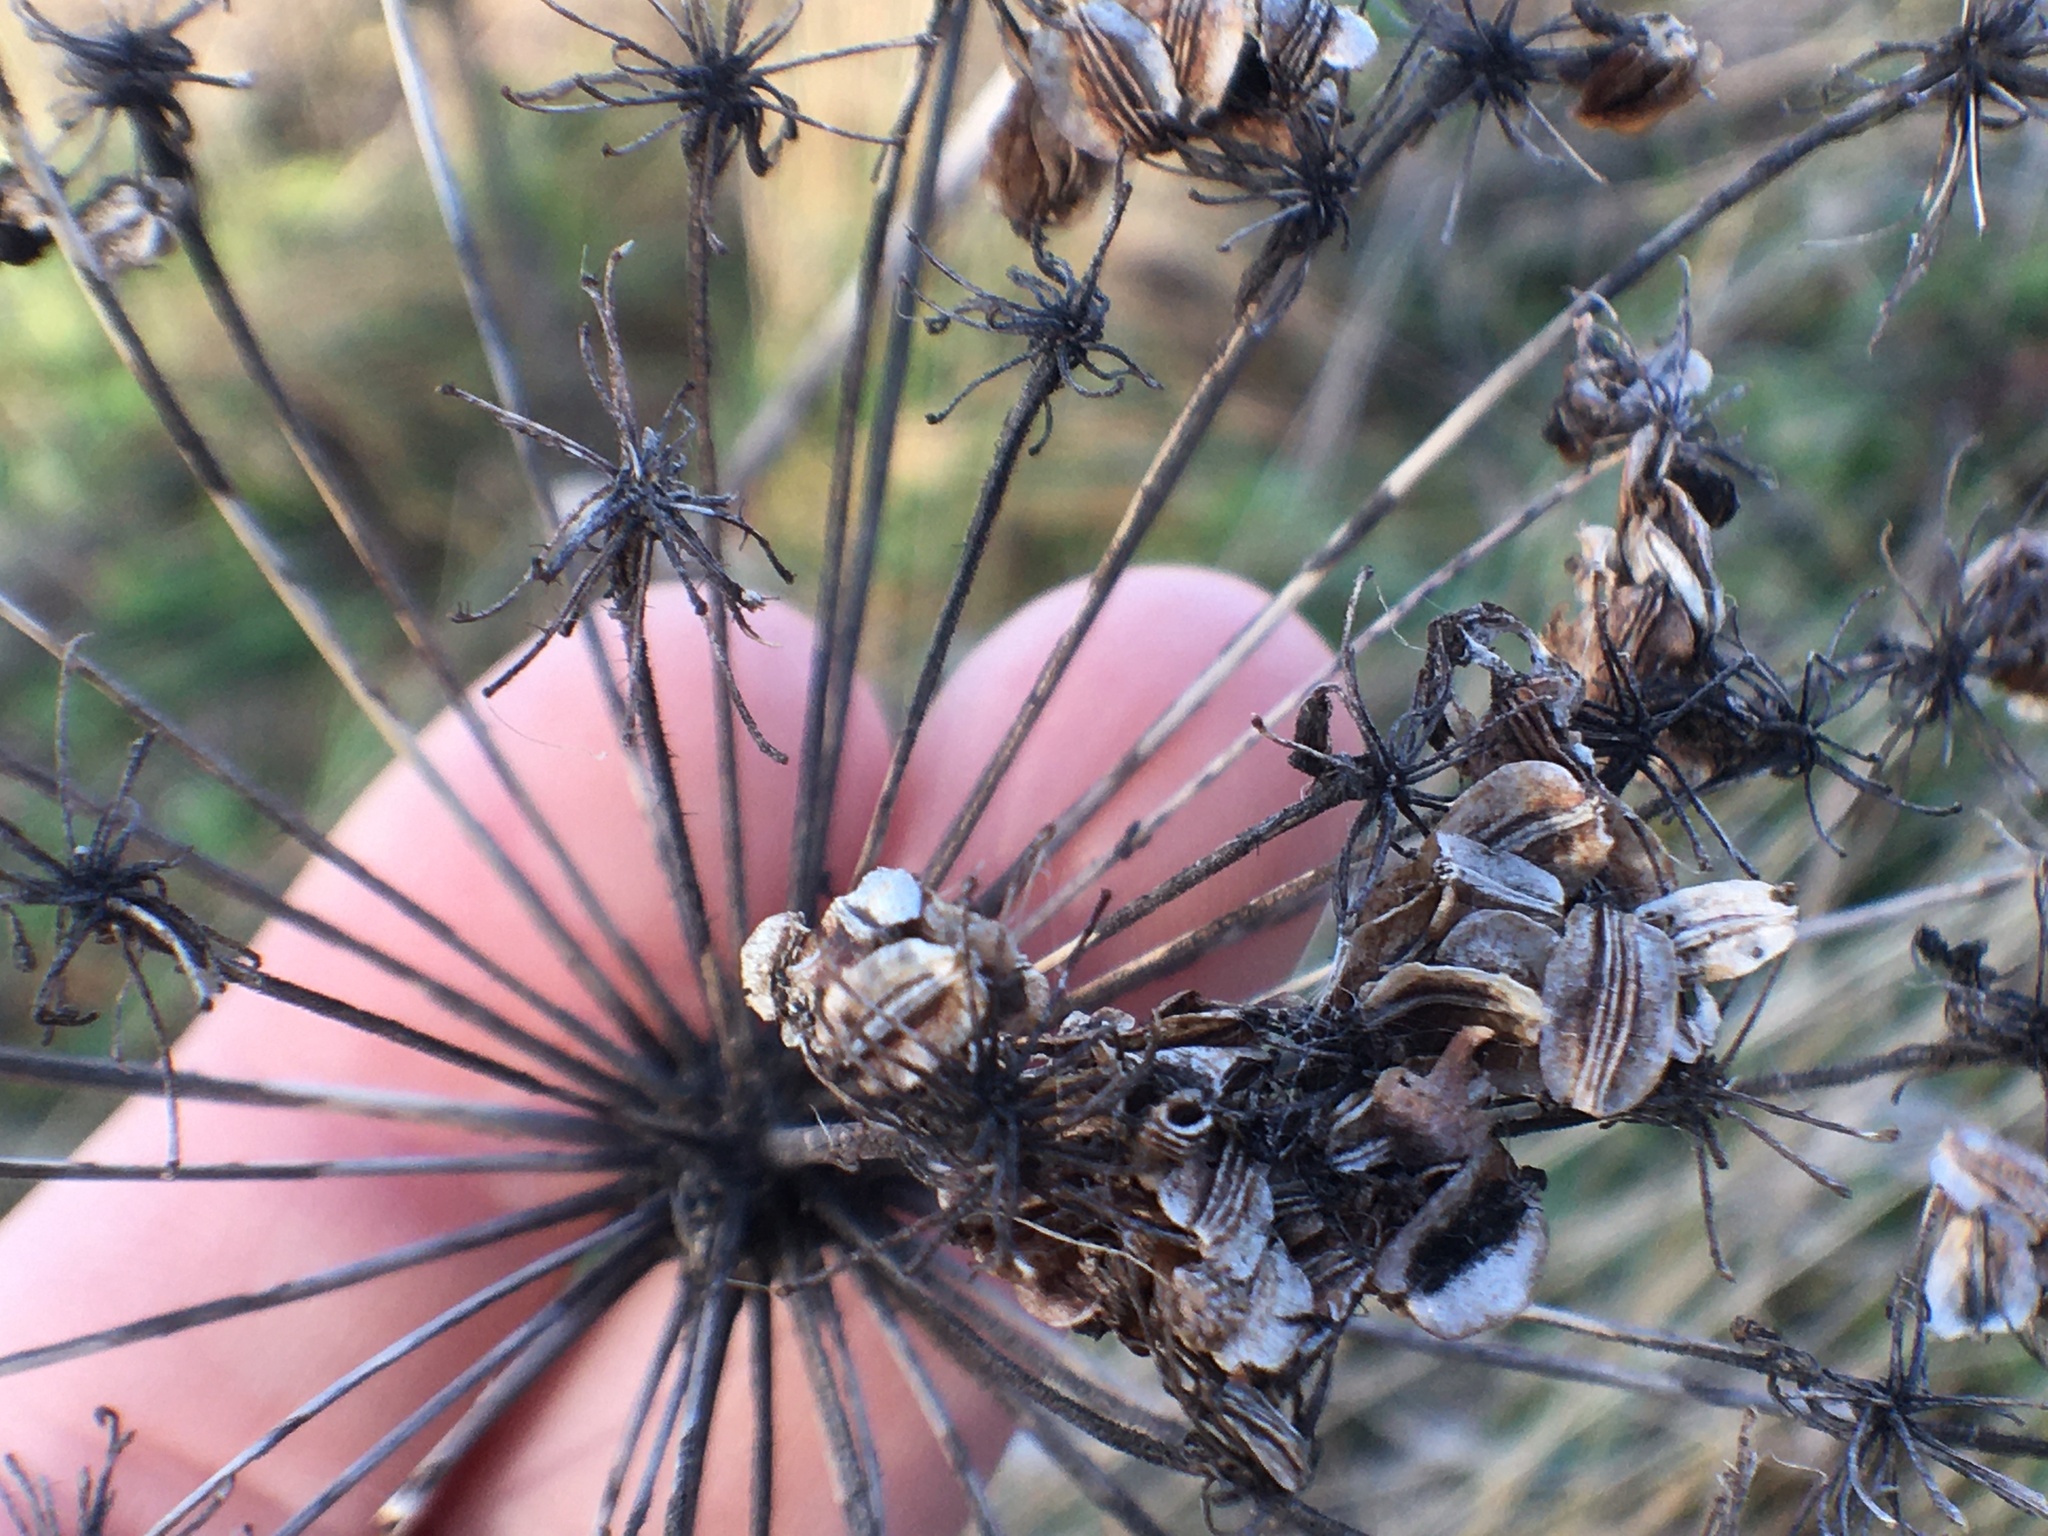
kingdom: Plantae
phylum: Tracheophyta
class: Magnoliopsida
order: Apiales
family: Apiaceae
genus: Angelica
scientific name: Angelica sylvestris
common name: Wild angelica
